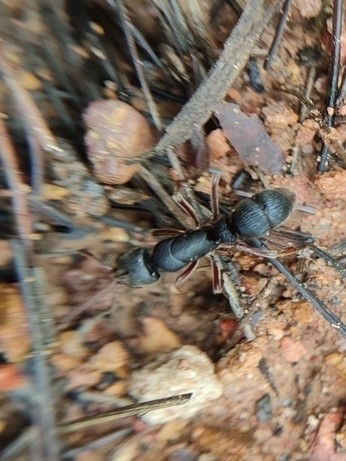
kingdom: Animalia
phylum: Arthropoda
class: Insecta
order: Hymenoptera
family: Formicidae
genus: Pseudoneoponera
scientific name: Pseudoneoponera rufipes
